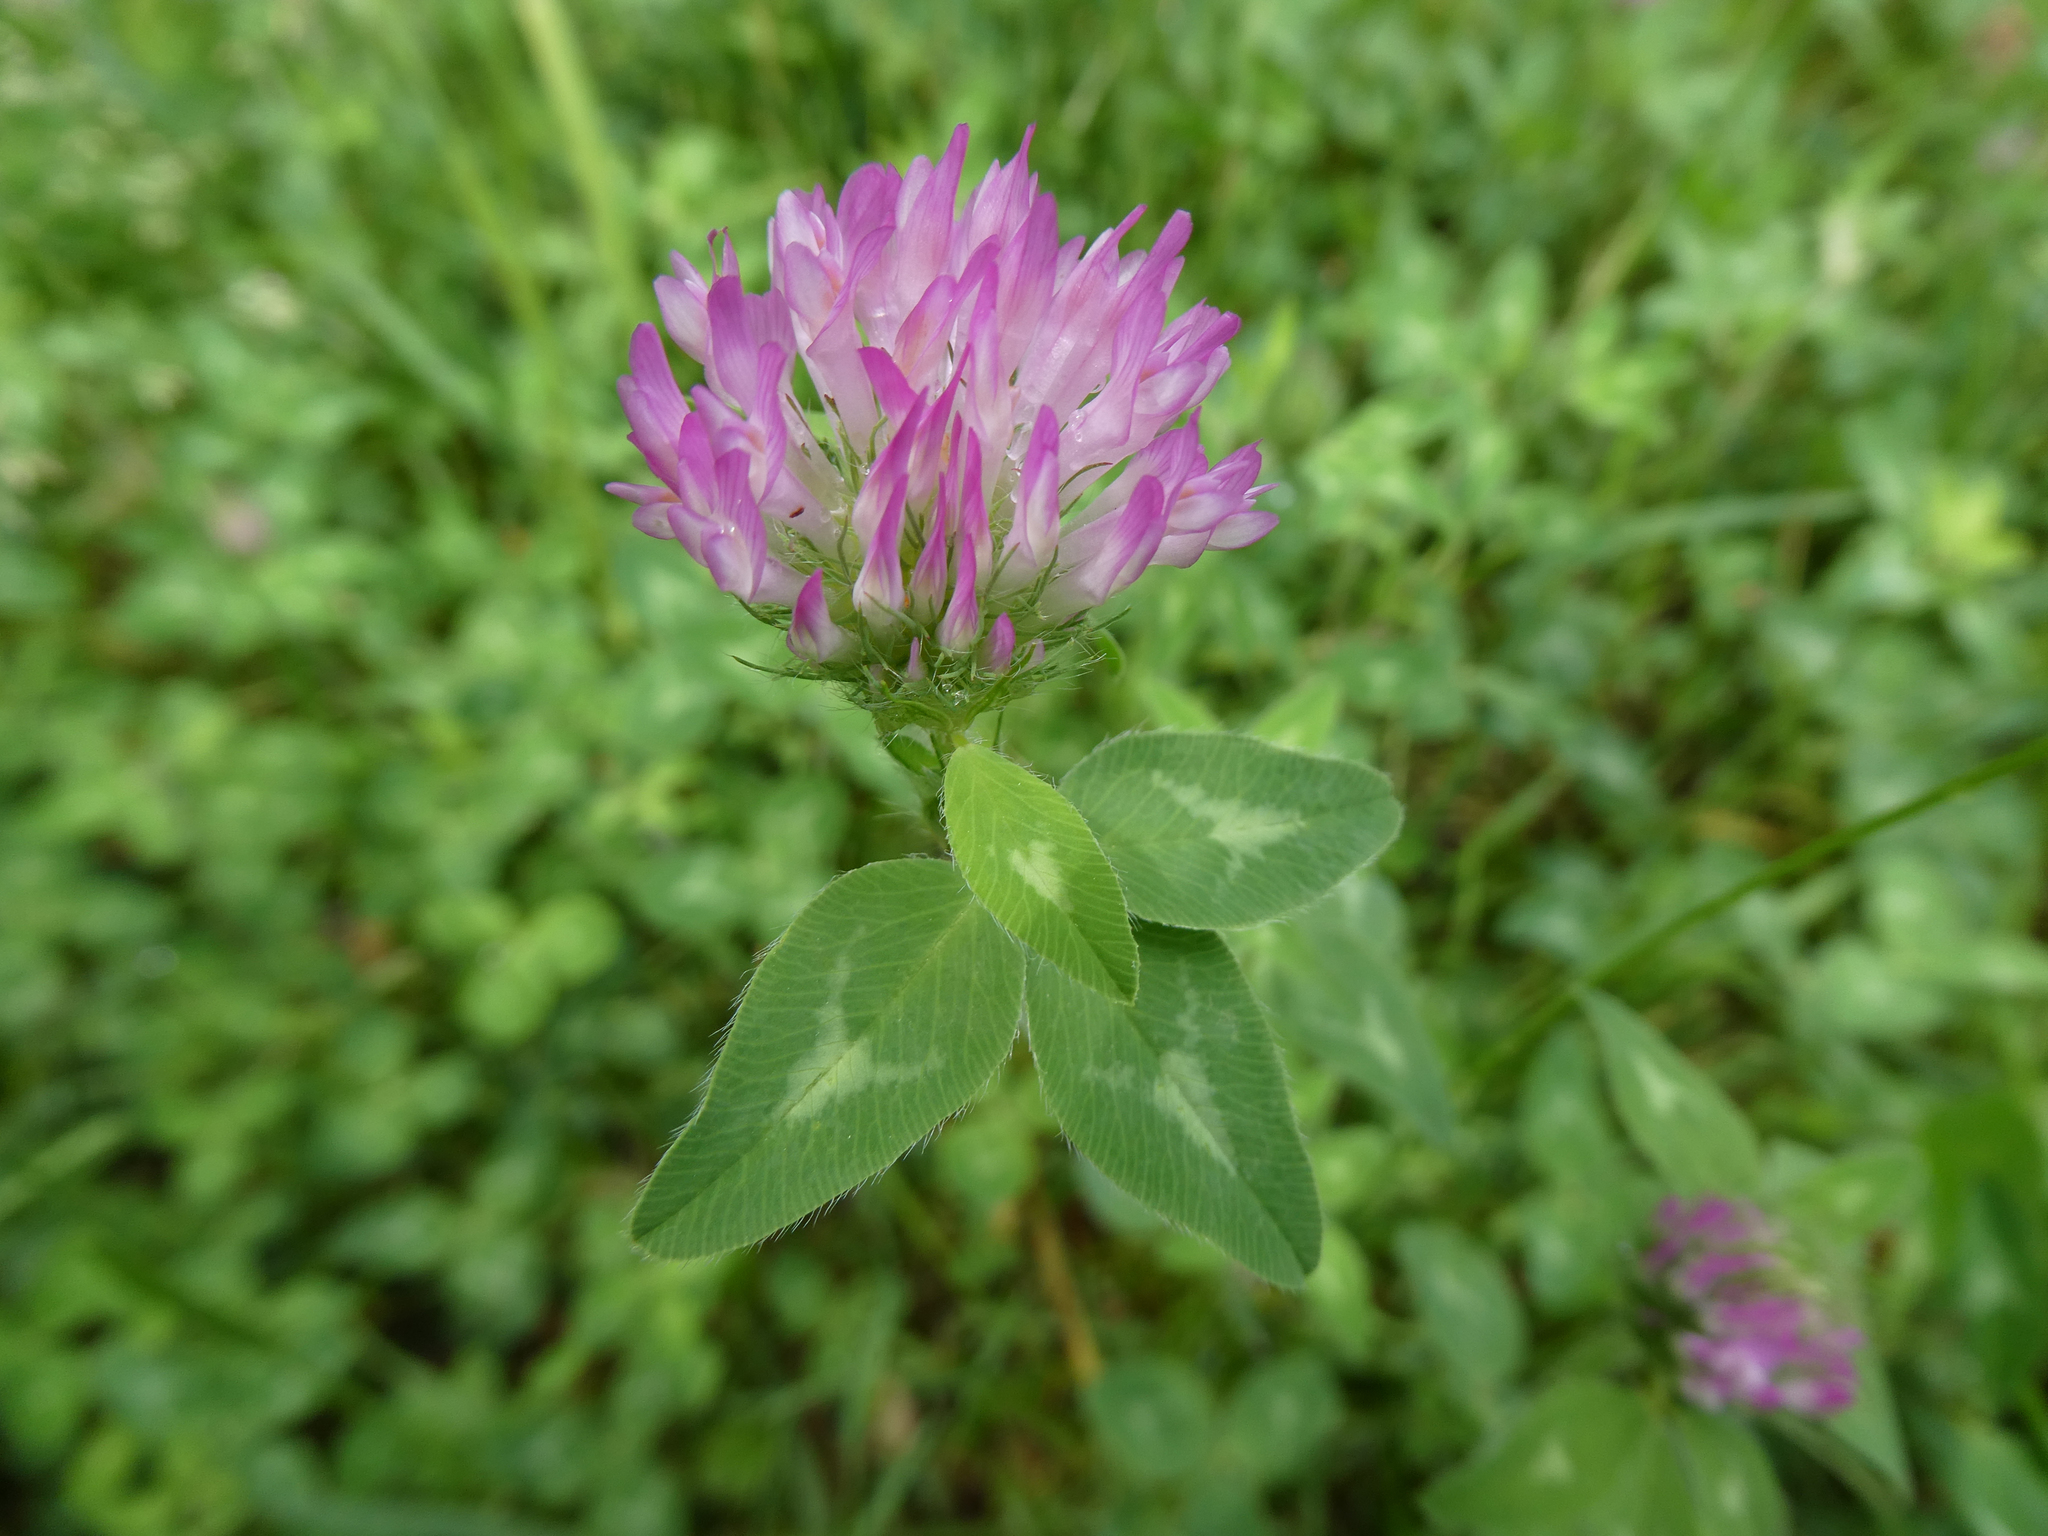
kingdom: Plantae
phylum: Tracheophyta
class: Magnoliopsida
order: Fabales
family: Fabaceae
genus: Trifolium
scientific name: Trifolium pratense
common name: Red clover
